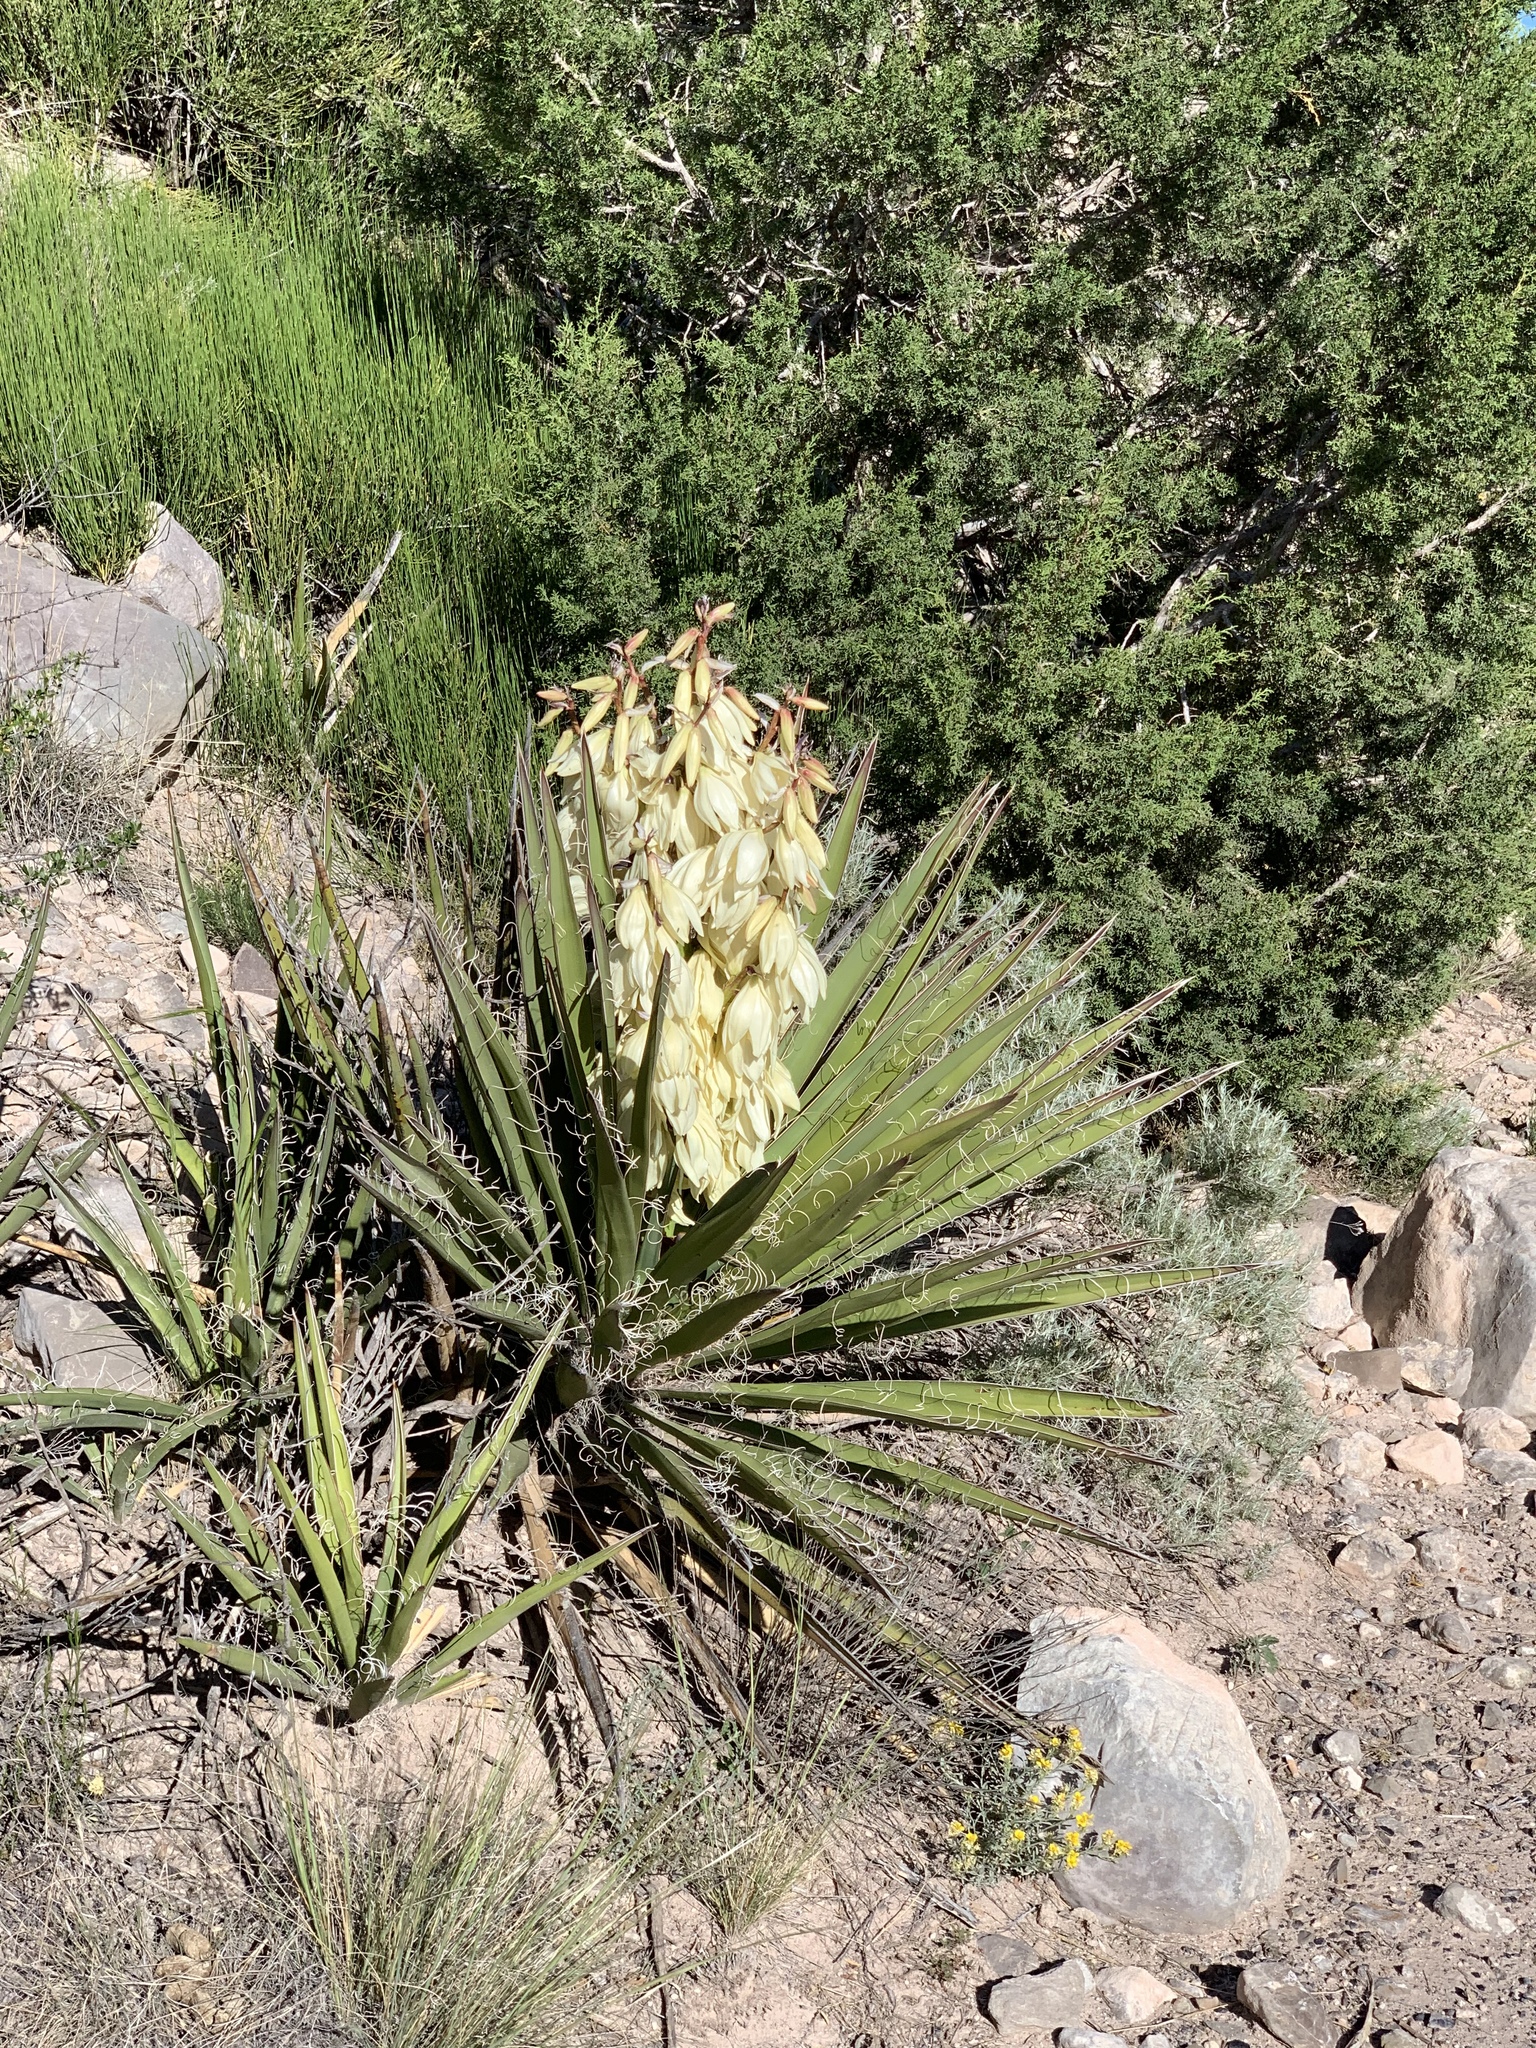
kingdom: Plantae
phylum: Tracheophyta
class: Liliopsida
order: Asparagales
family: Asparagaceae
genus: Yucca
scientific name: Yucca baccata
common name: Banana yucca
